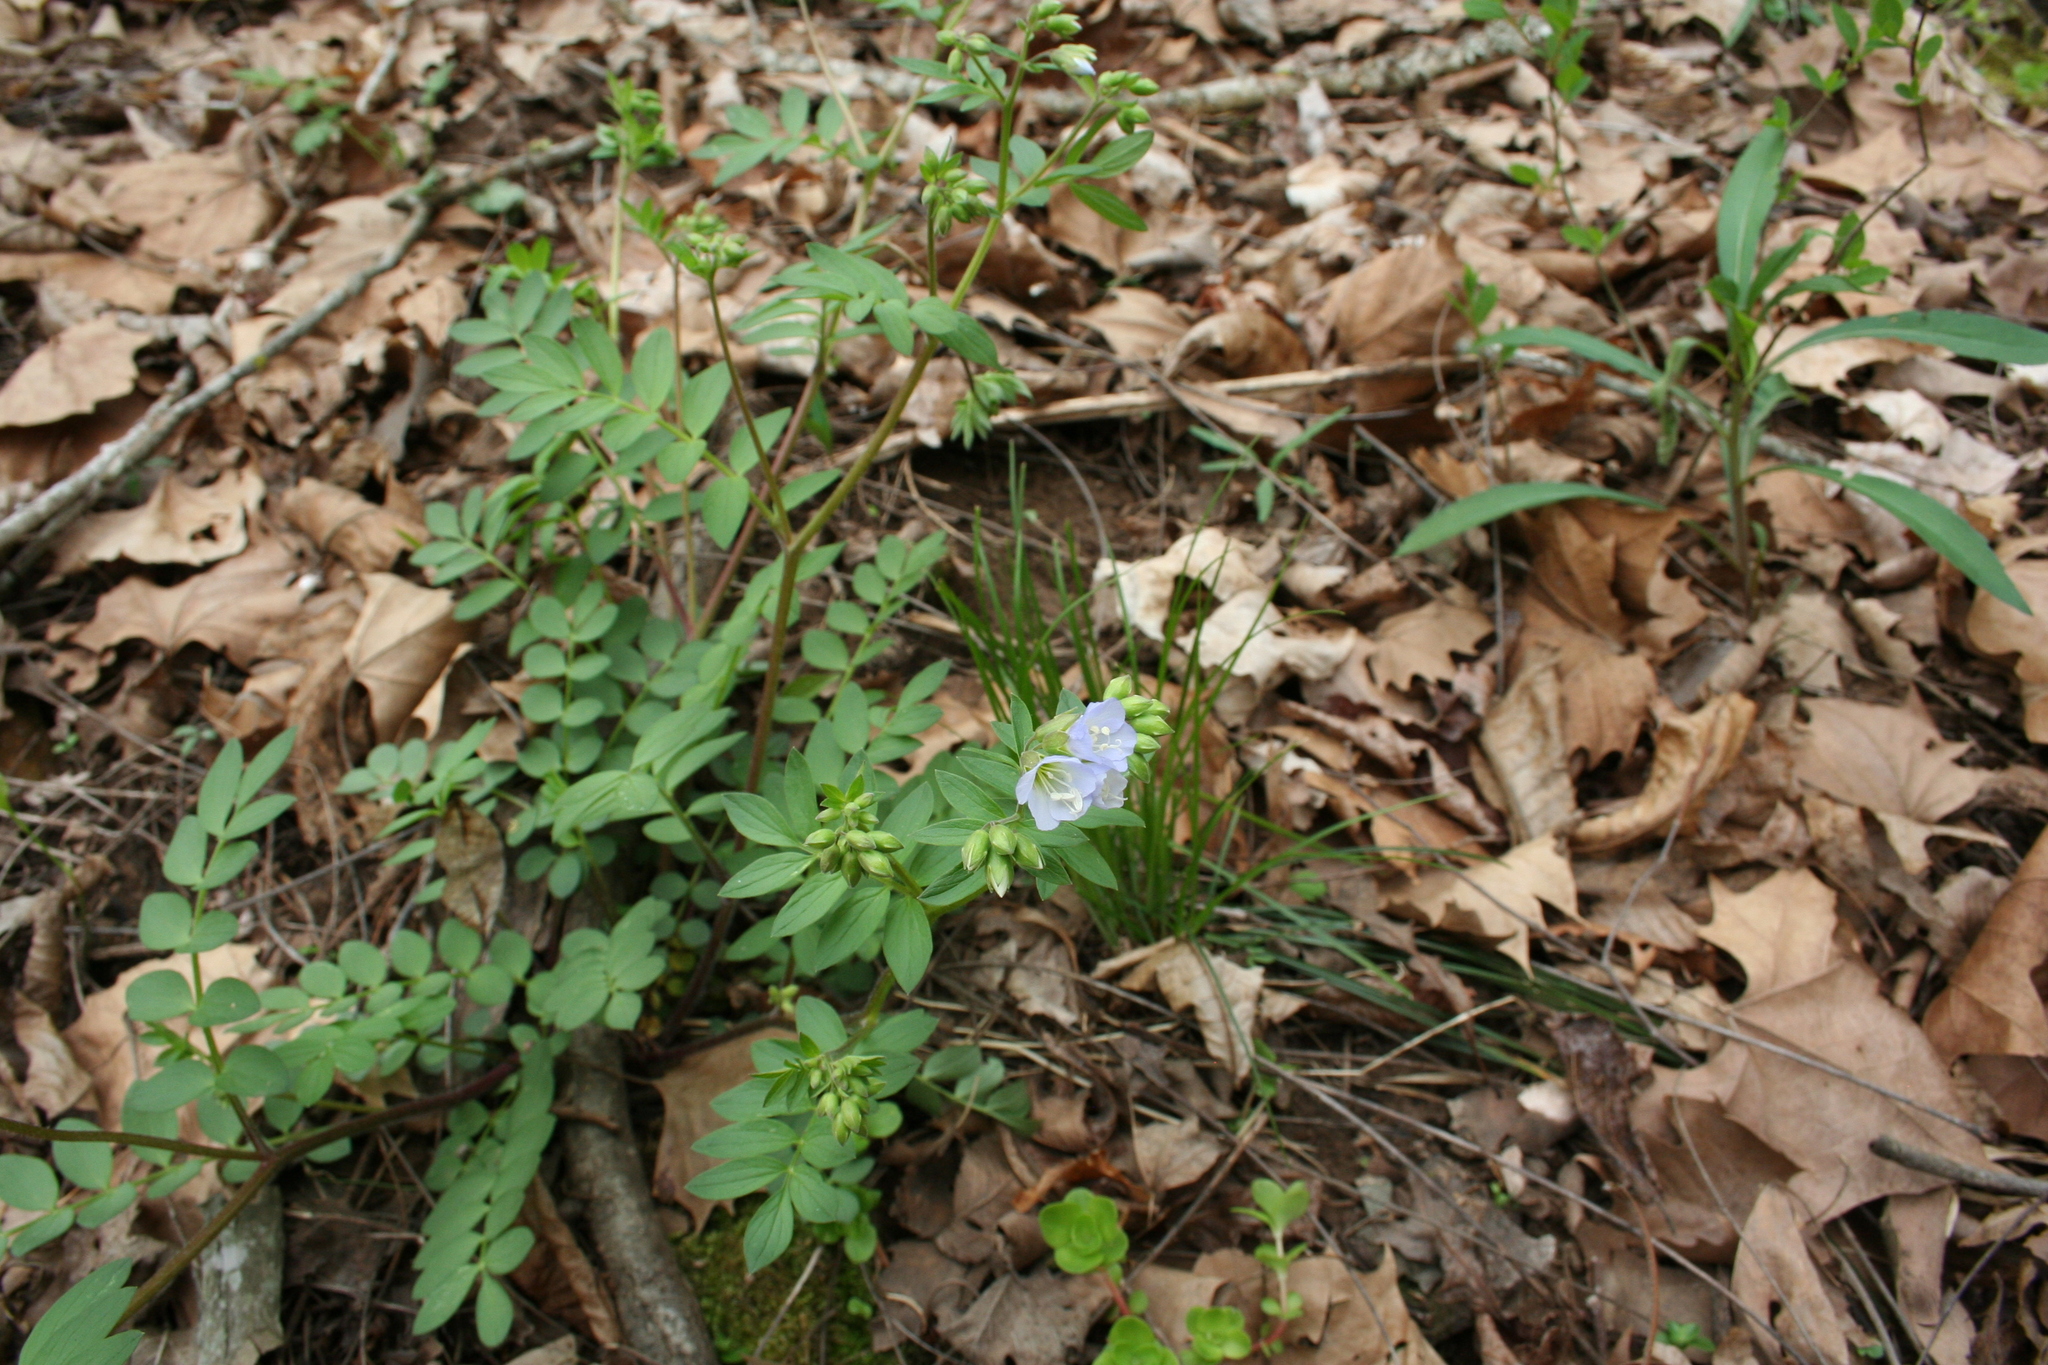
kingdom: Plantae
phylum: Tracheophyta
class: Magnoliopsida
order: Ericales
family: Polemoniaceae
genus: Polemonium
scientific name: Polemonium reptans
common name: Creeping jacob's-ladder
